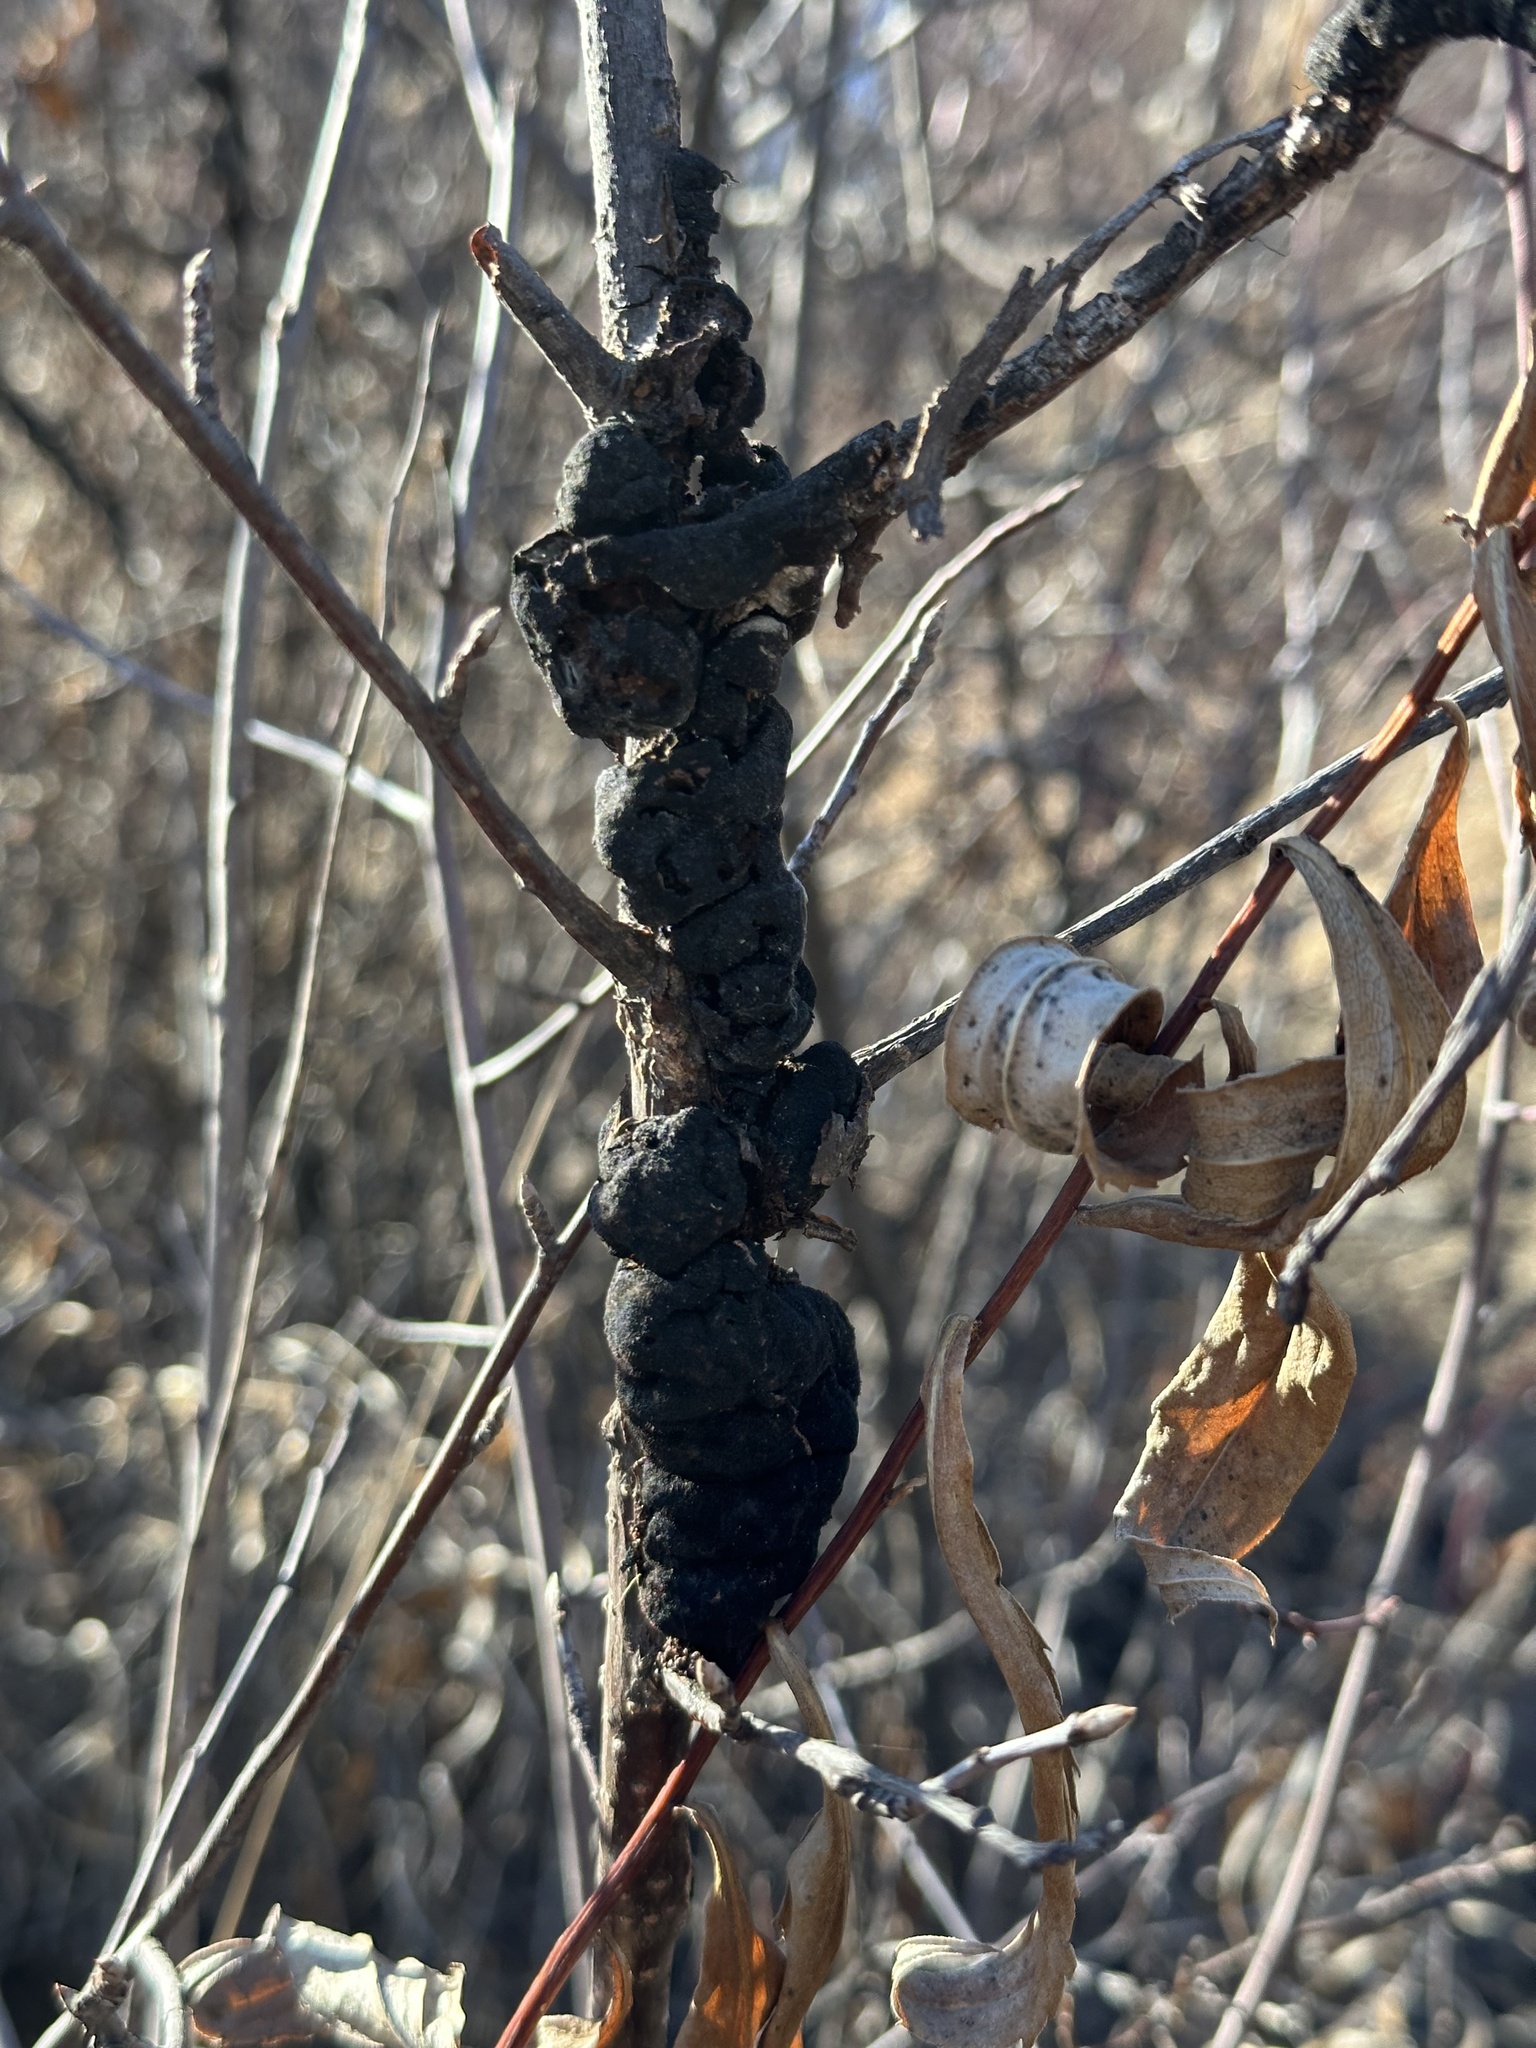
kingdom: Fungi
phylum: Ascomycota
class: Dothideomycetes
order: Venturiales
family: Venturiaceae
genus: Apiosporina
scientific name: Apiosporina morbosa
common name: Black knot
